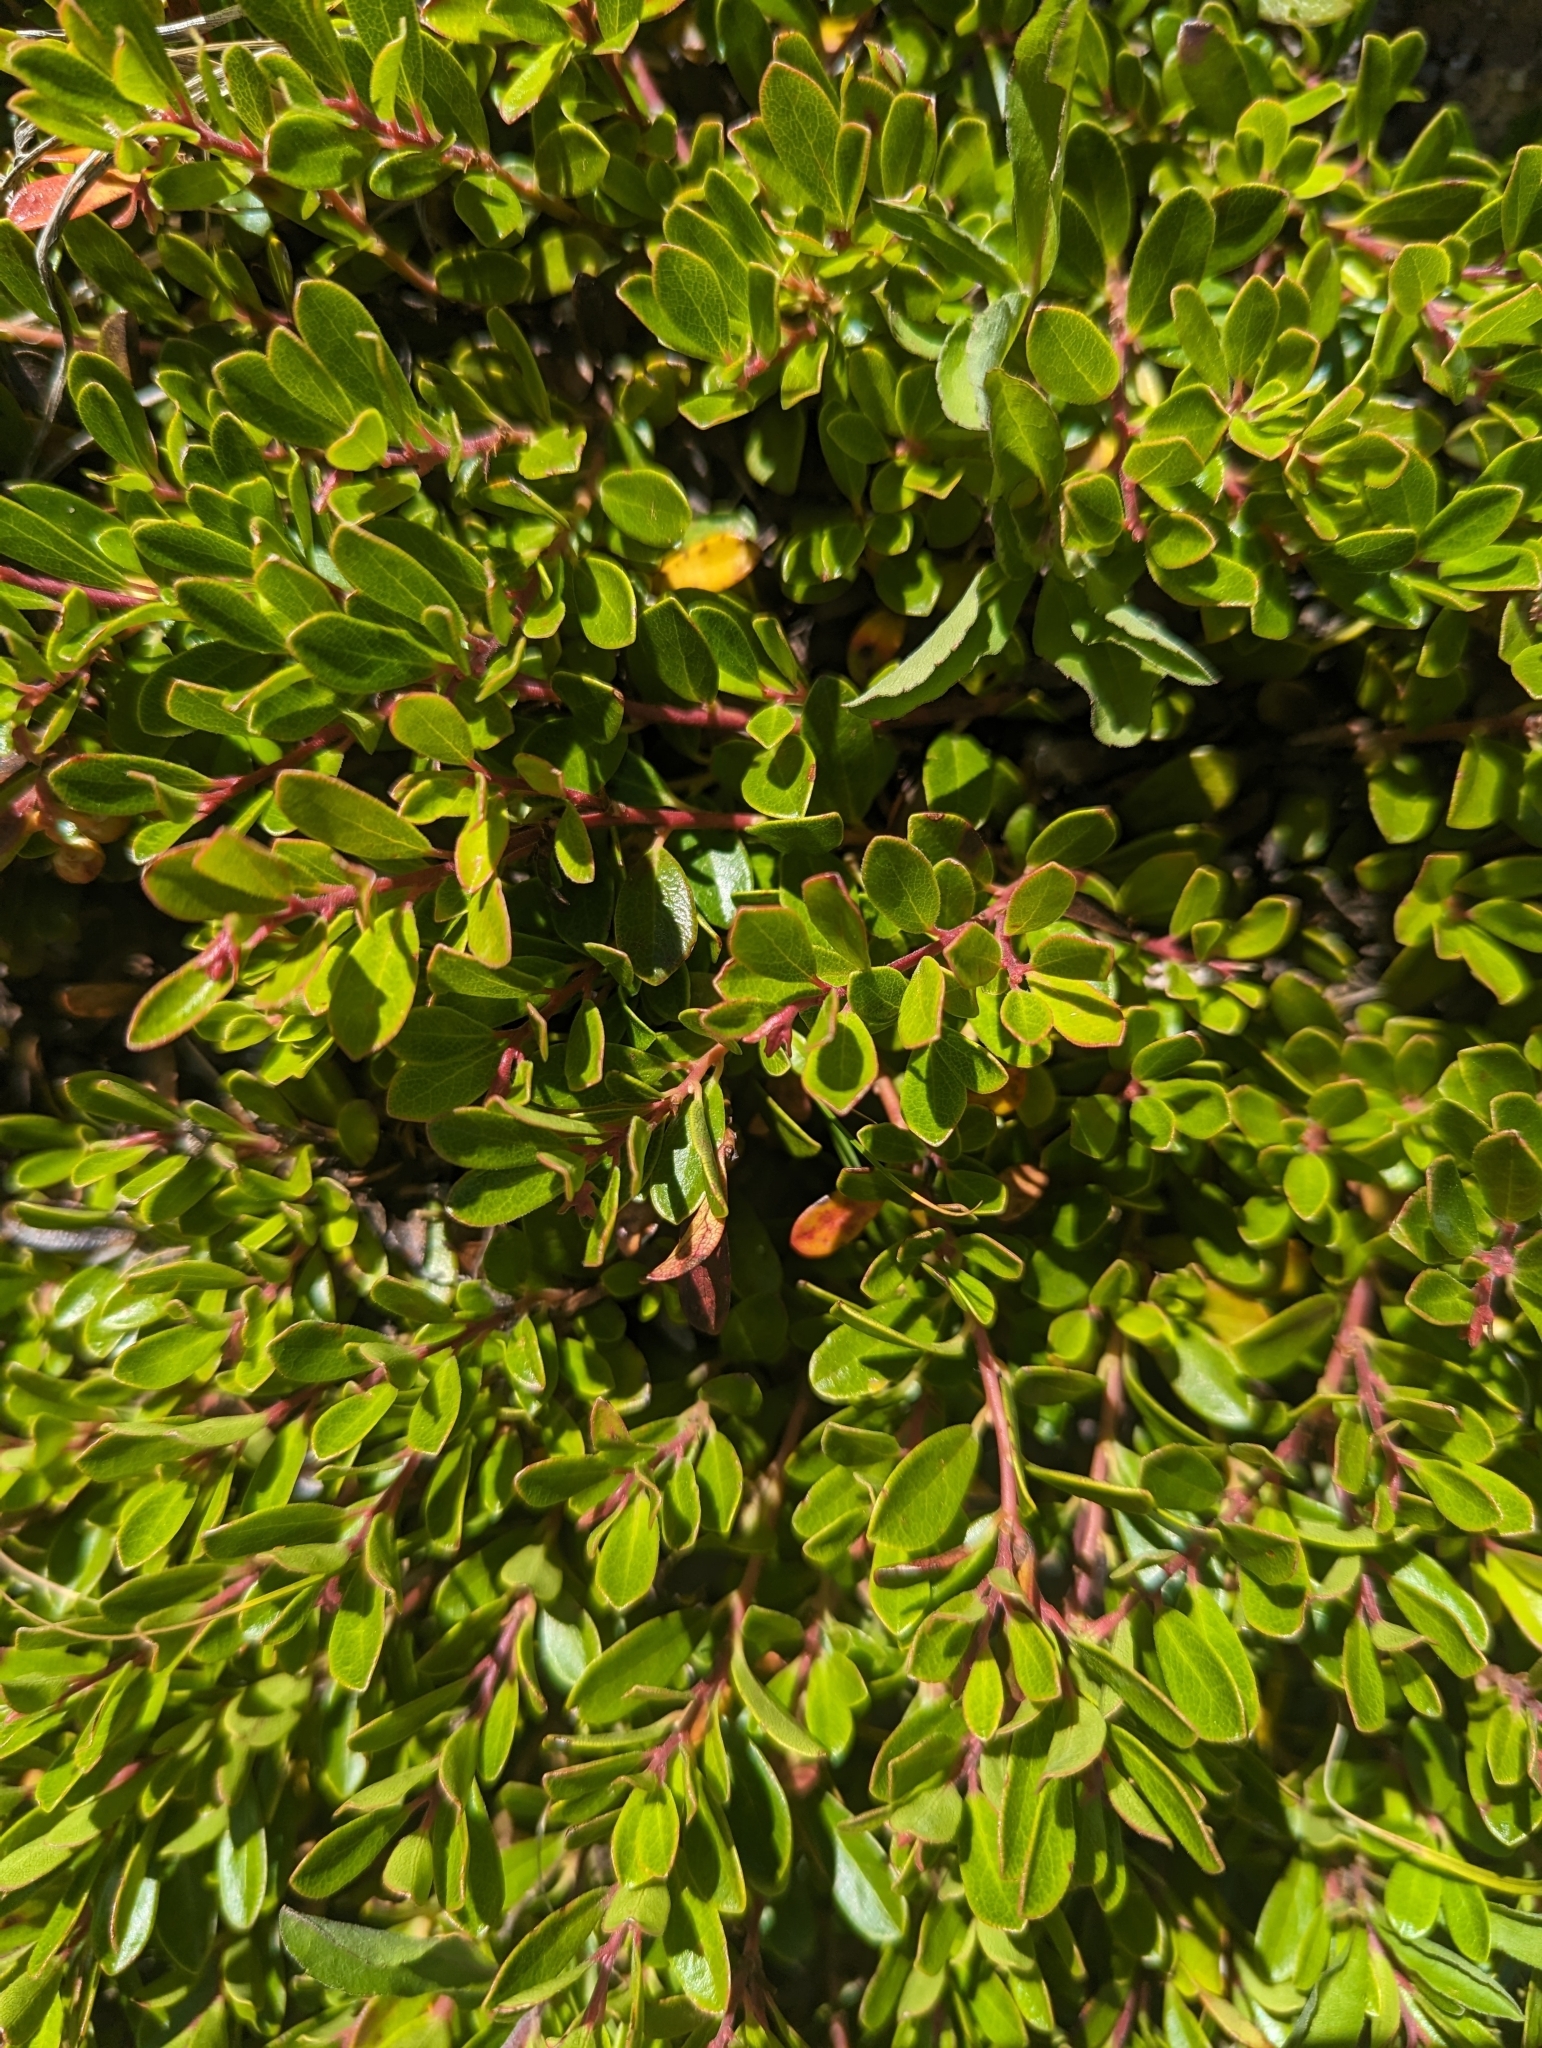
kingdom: Plantae
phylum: Tracheophyta
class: Magnoliopsida
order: Ericales
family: Ericaceae
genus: Arctostaphylos
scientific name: Arctostaphylos uva-ursi
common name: Bearberry
